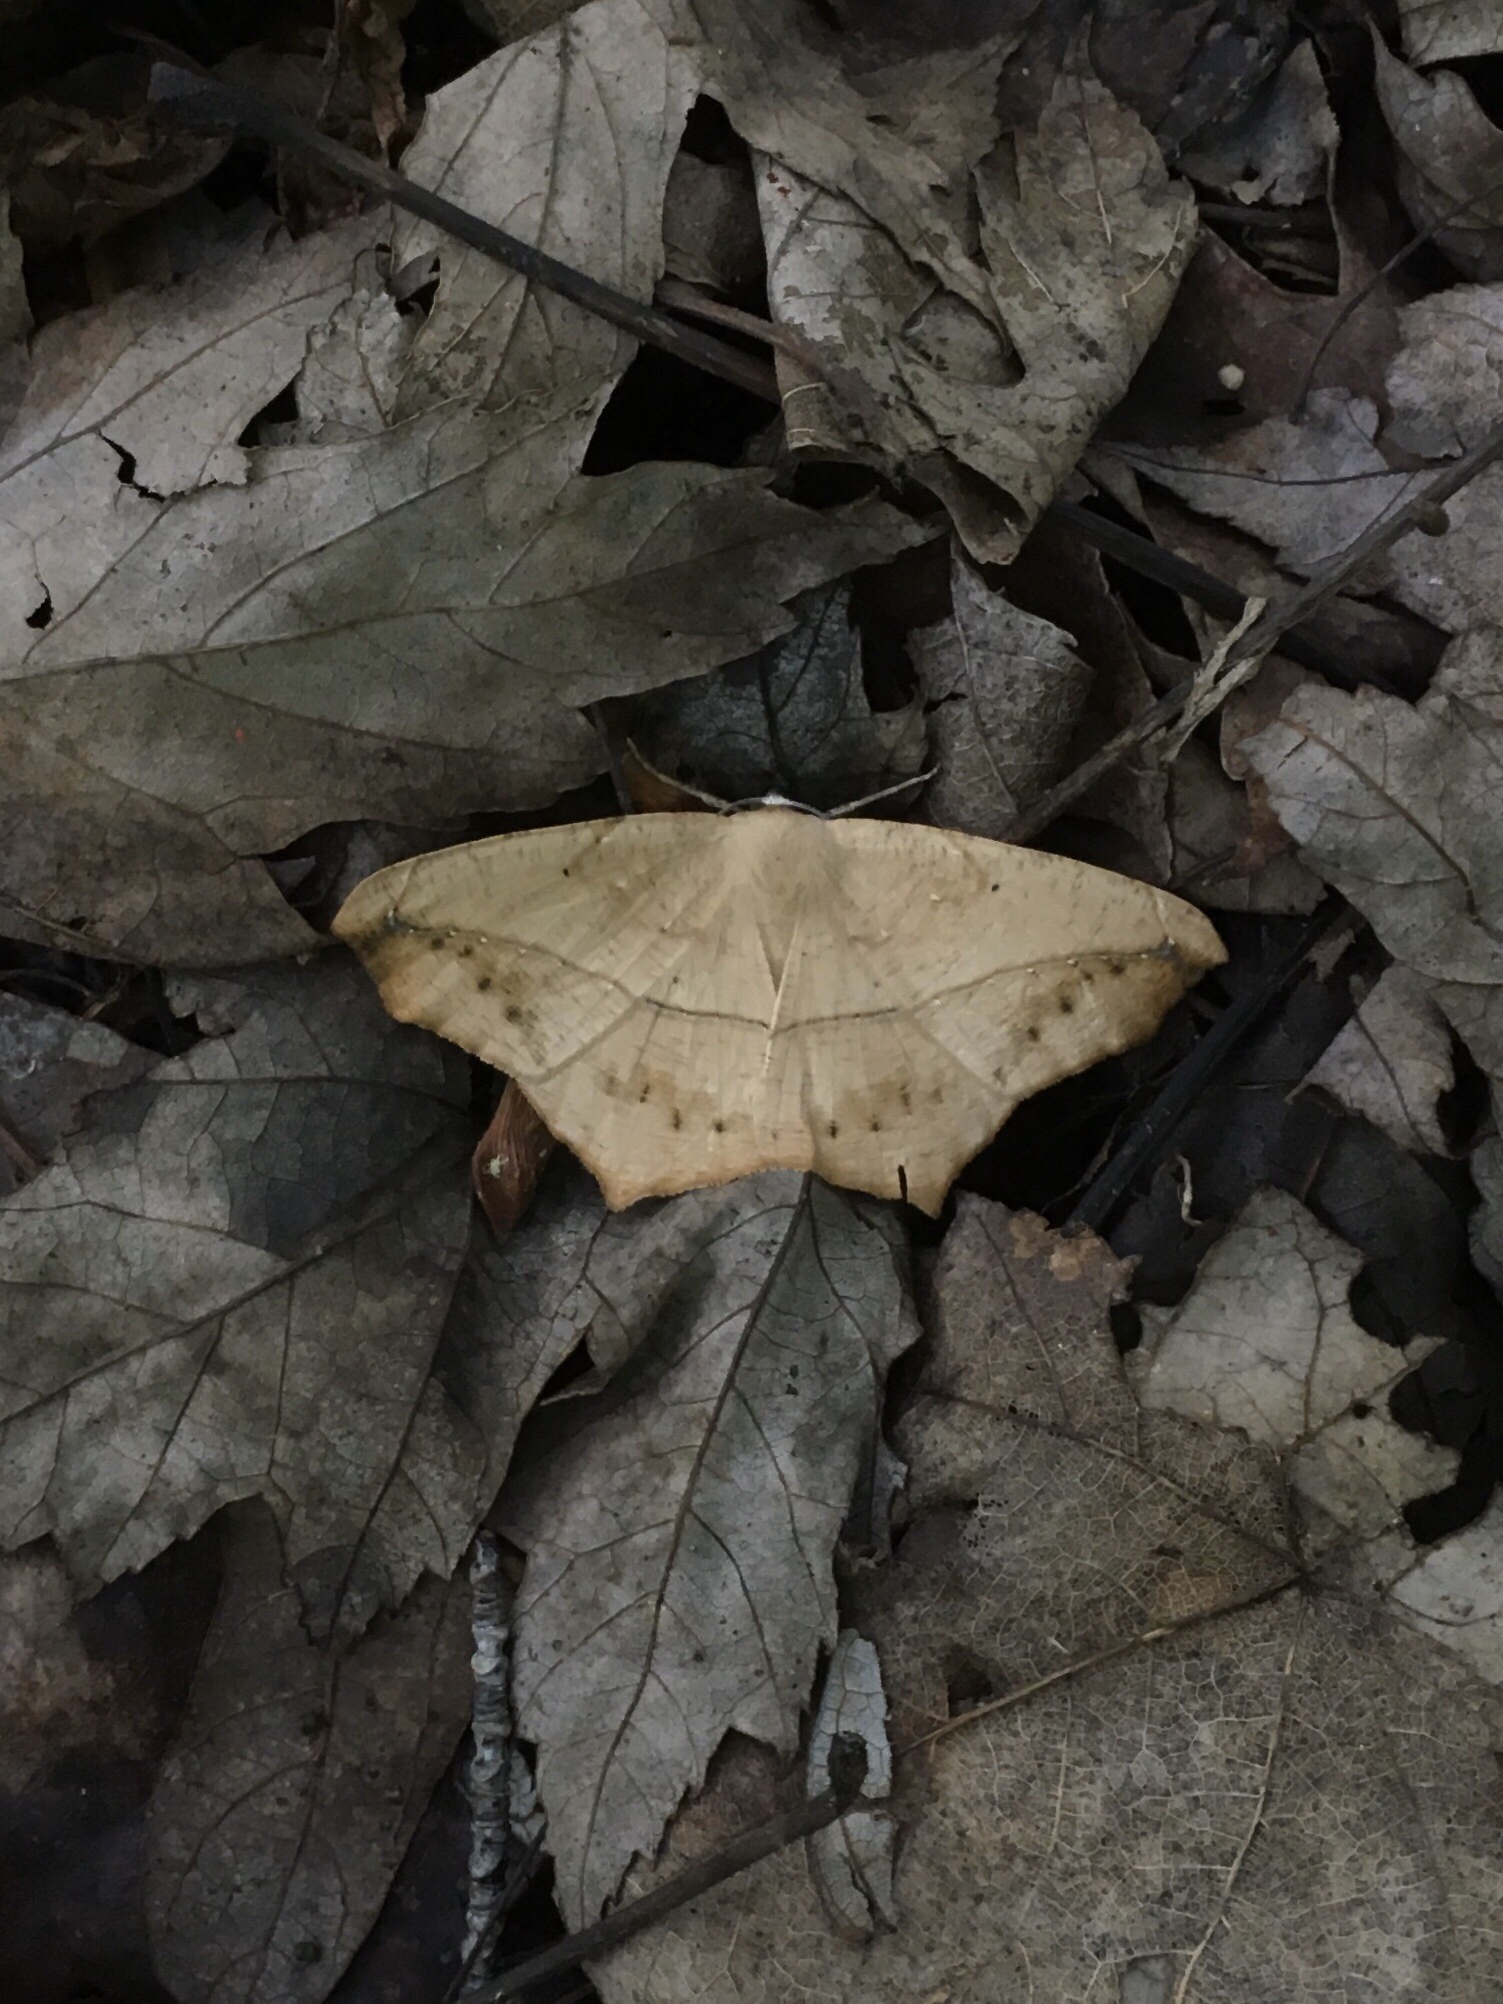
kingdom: Animalia
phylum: Arthropoda
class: Insecta
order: Lepidoptera
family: Geometridae
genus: Prochoerodes
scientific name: Prochoerodes lineola
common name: Large maple spanworm
